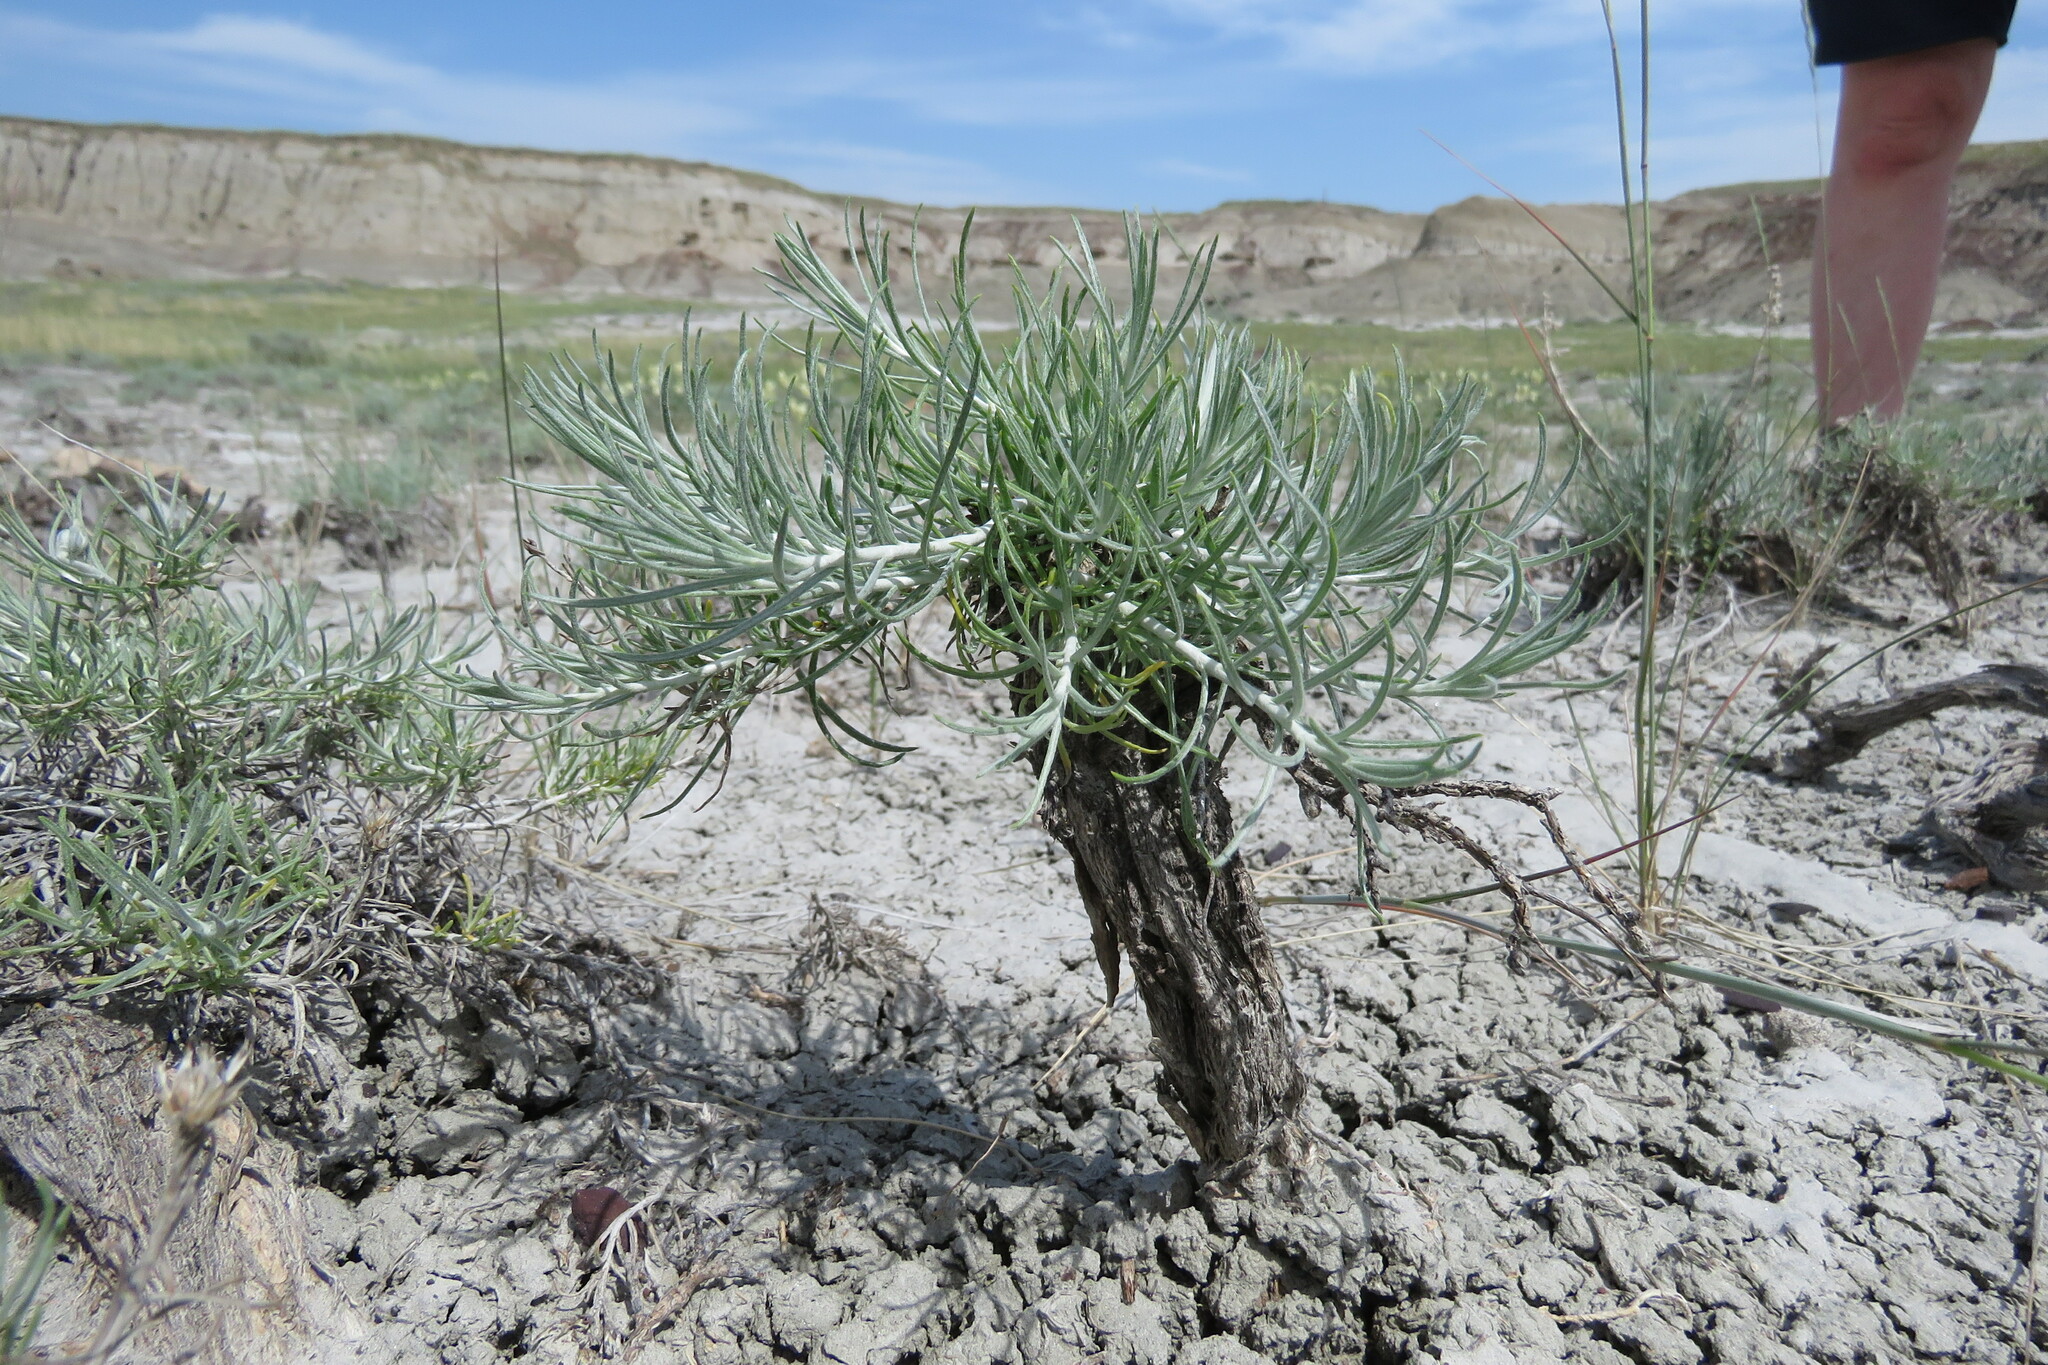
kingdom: Plantae
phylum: Tracheophyta
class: Magnoliopsida
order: Asterales
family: Asteraceae
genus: Ericameria
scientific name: Ericameria nauseosa
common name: Rubber rabbitbrush
